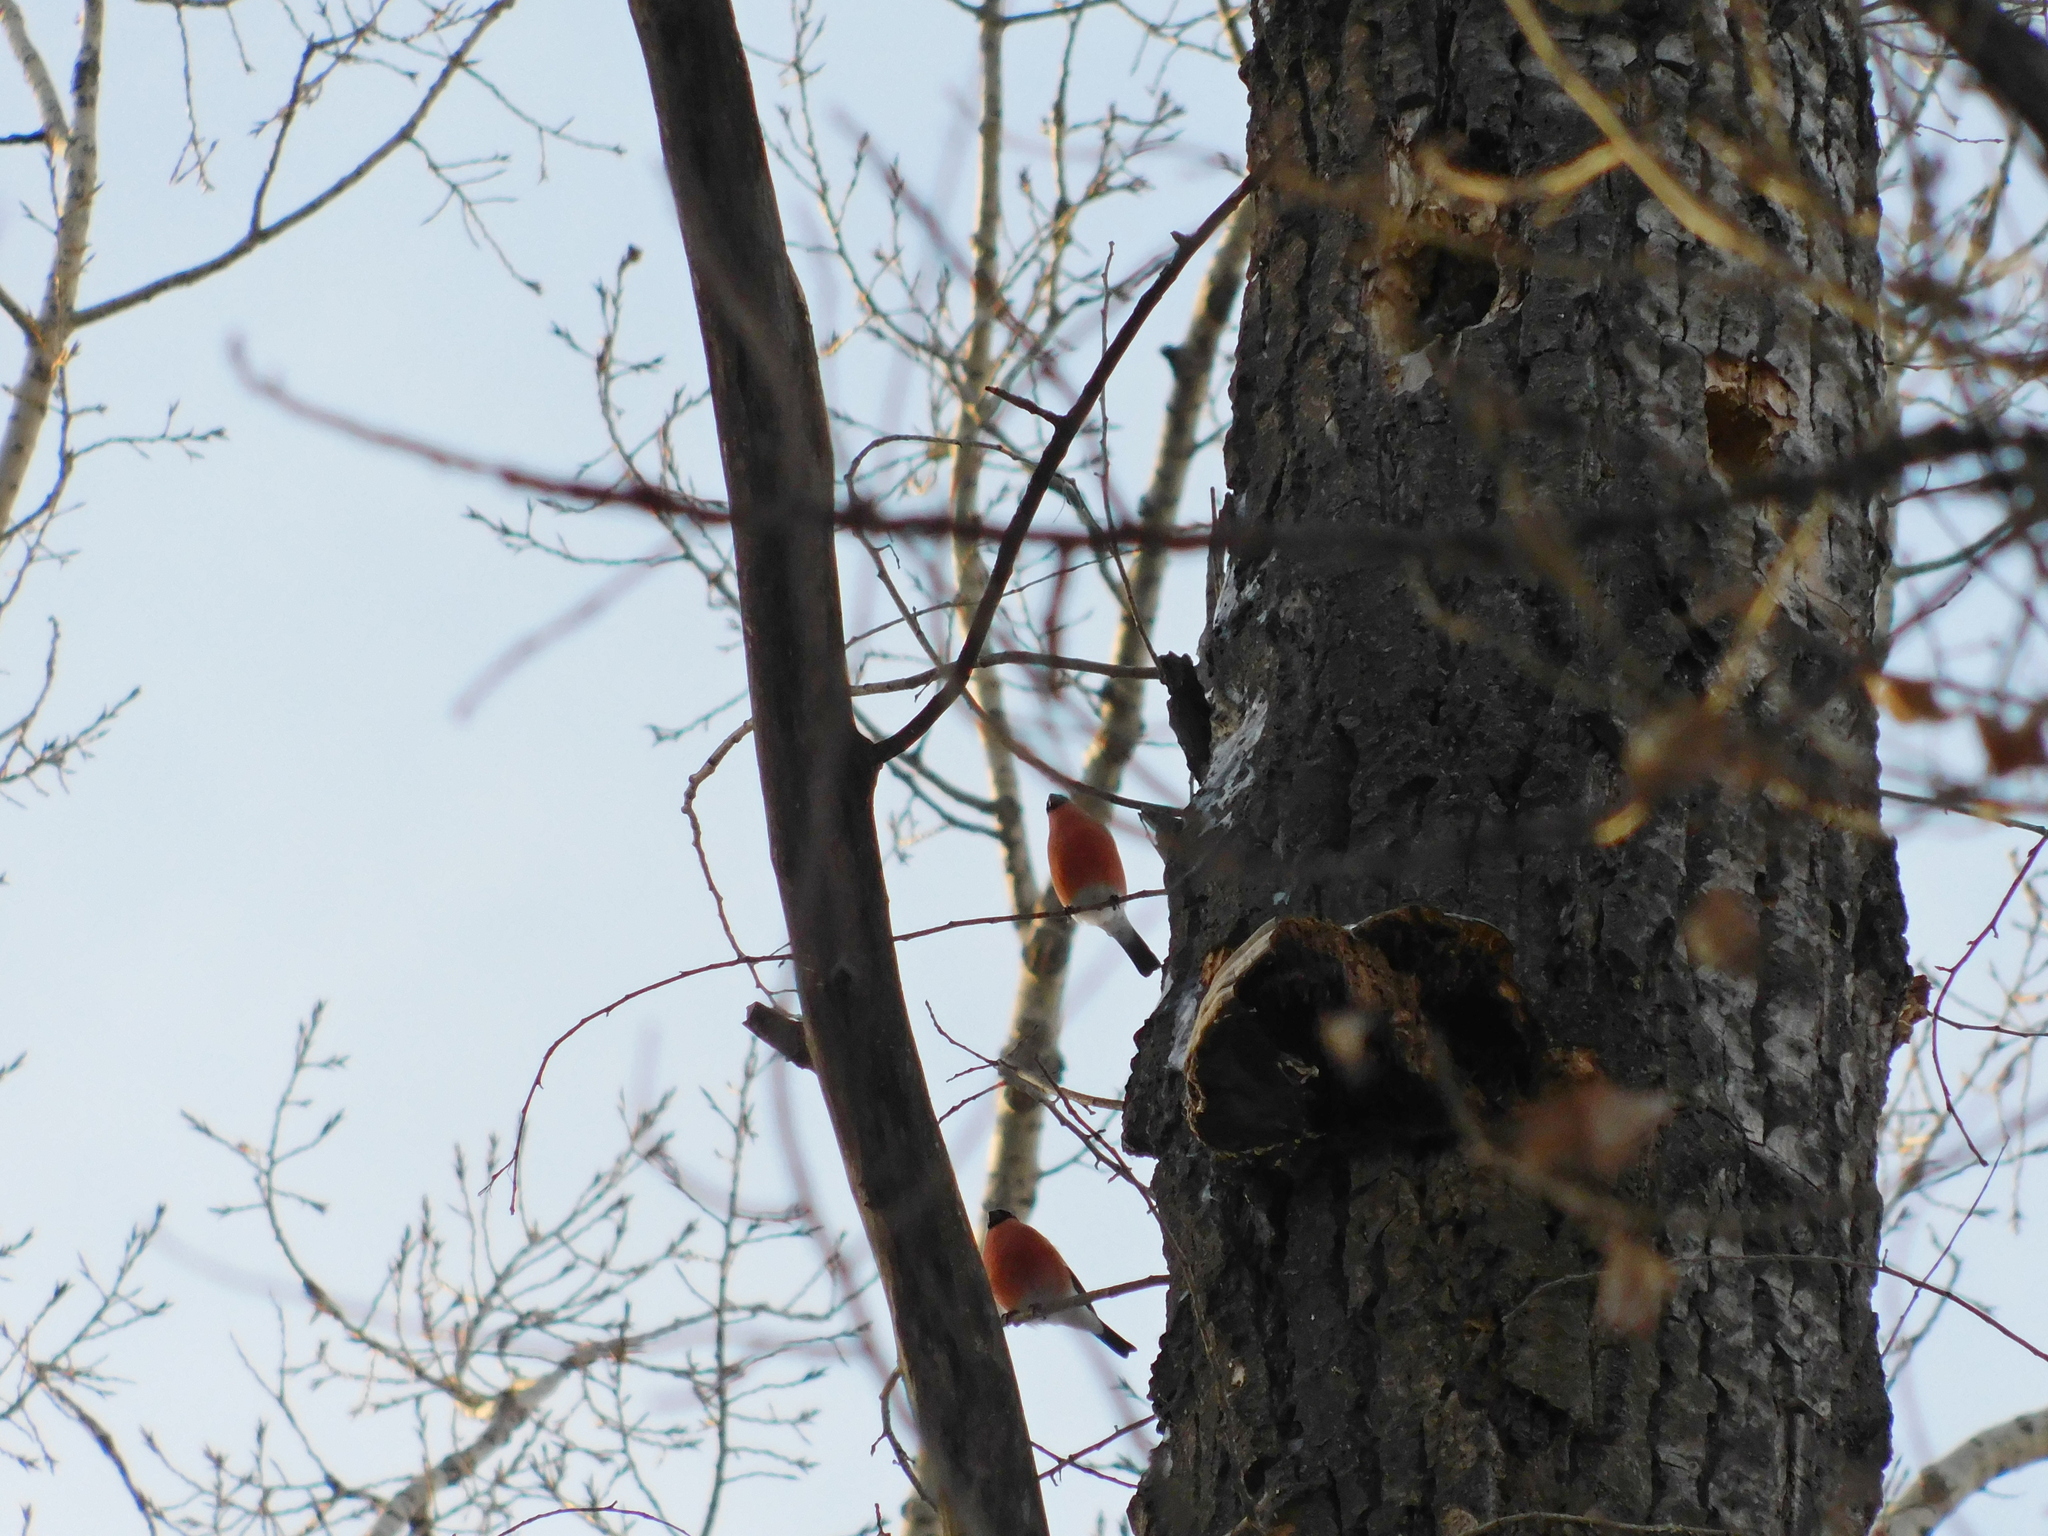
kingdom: Animalia
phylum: Chordata
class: Aves
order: Passeriformes
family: Fringillidae
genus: Pyrrhula
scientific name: Pyrrhula pyrrhula
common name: Eurasian bullfinch
